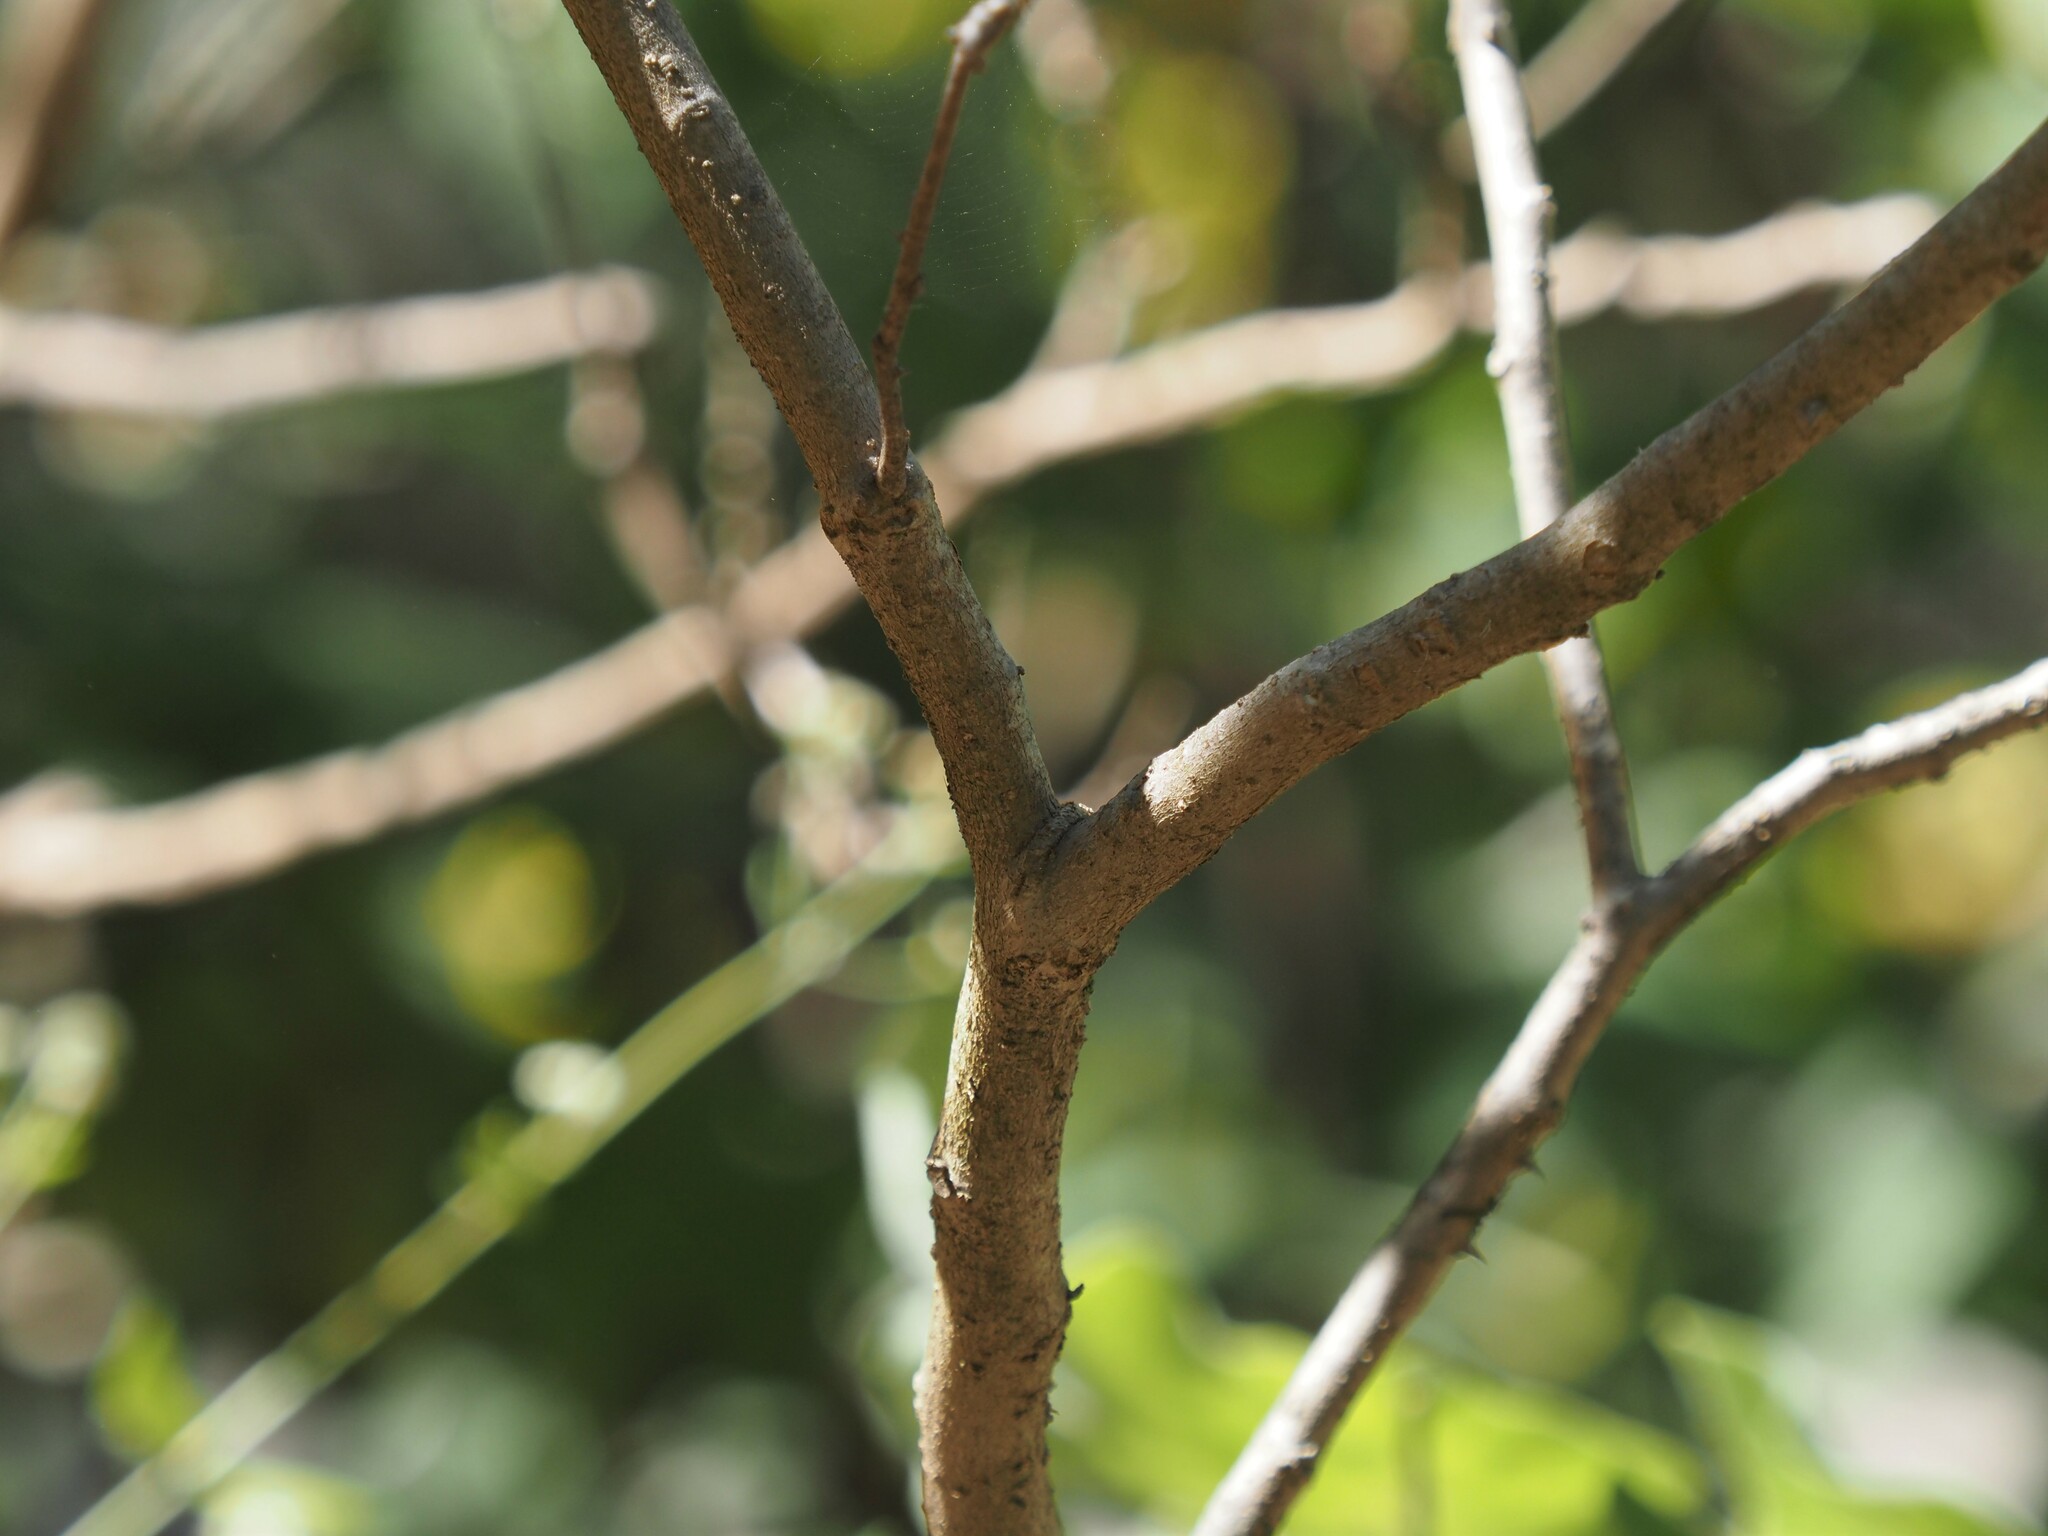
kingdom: Plantae
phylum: Tracheophyta
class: Magnoliopsida
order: Solanales
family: Solanaceae
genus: Solanum
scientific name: Solanum ferrugineum
